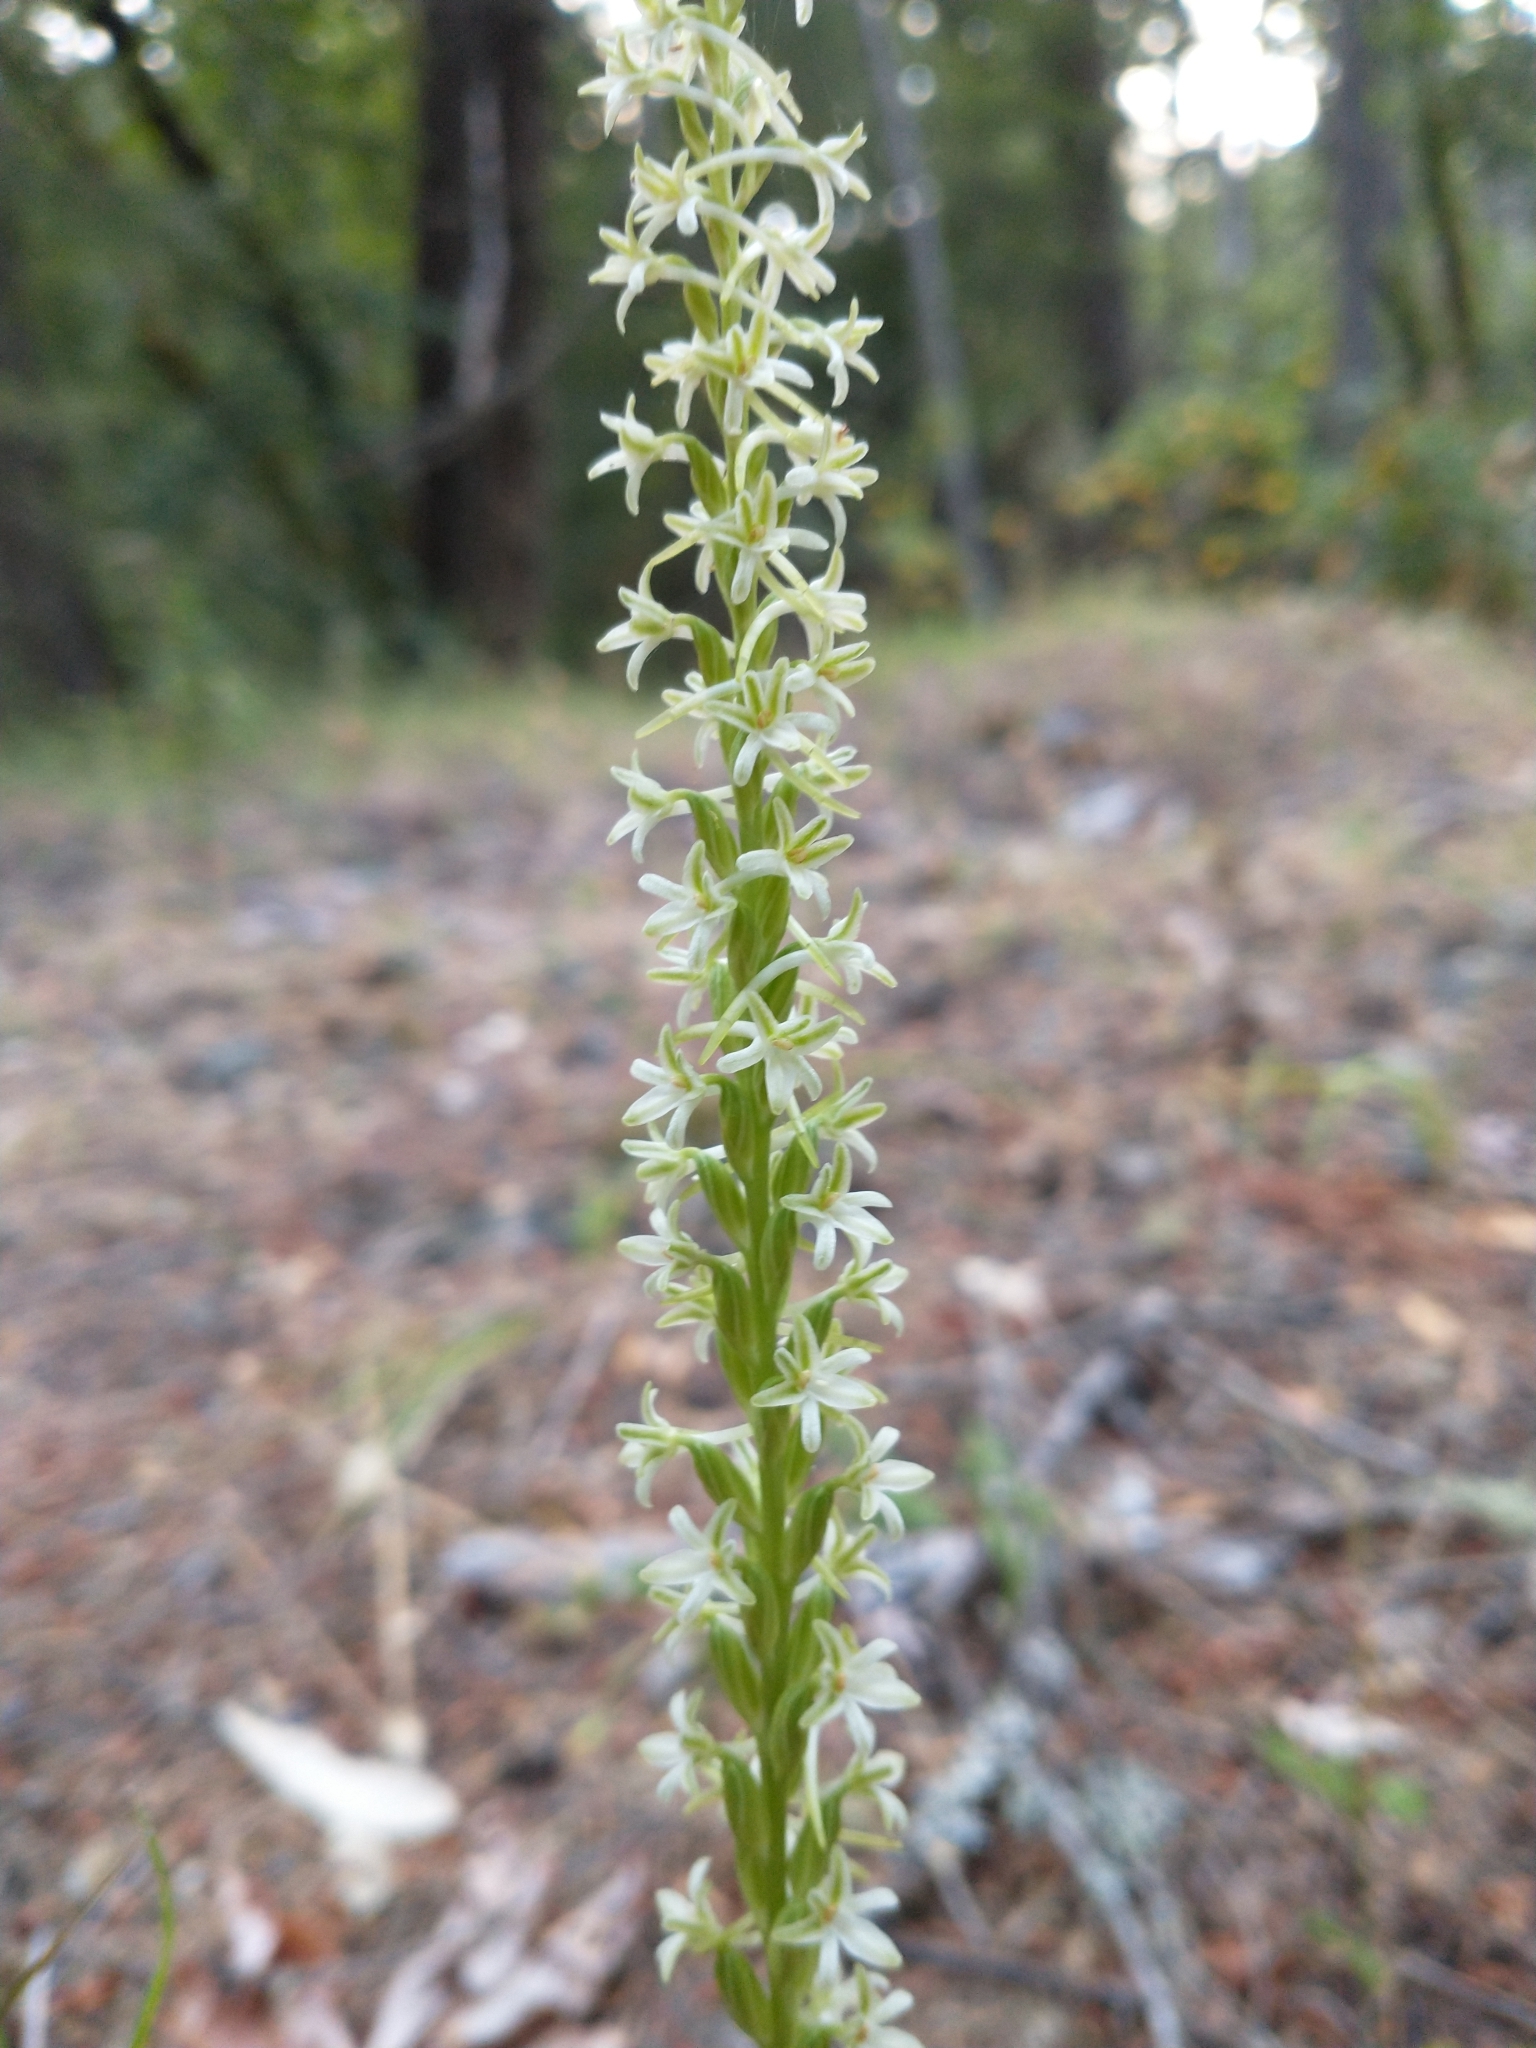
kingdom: Plantae
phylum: Tracheophyta
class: Liliopsida
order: Asparagales
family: Orchidaceae
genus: Platanthera
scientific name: Platanthera transversa
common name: Royal rein orchid
